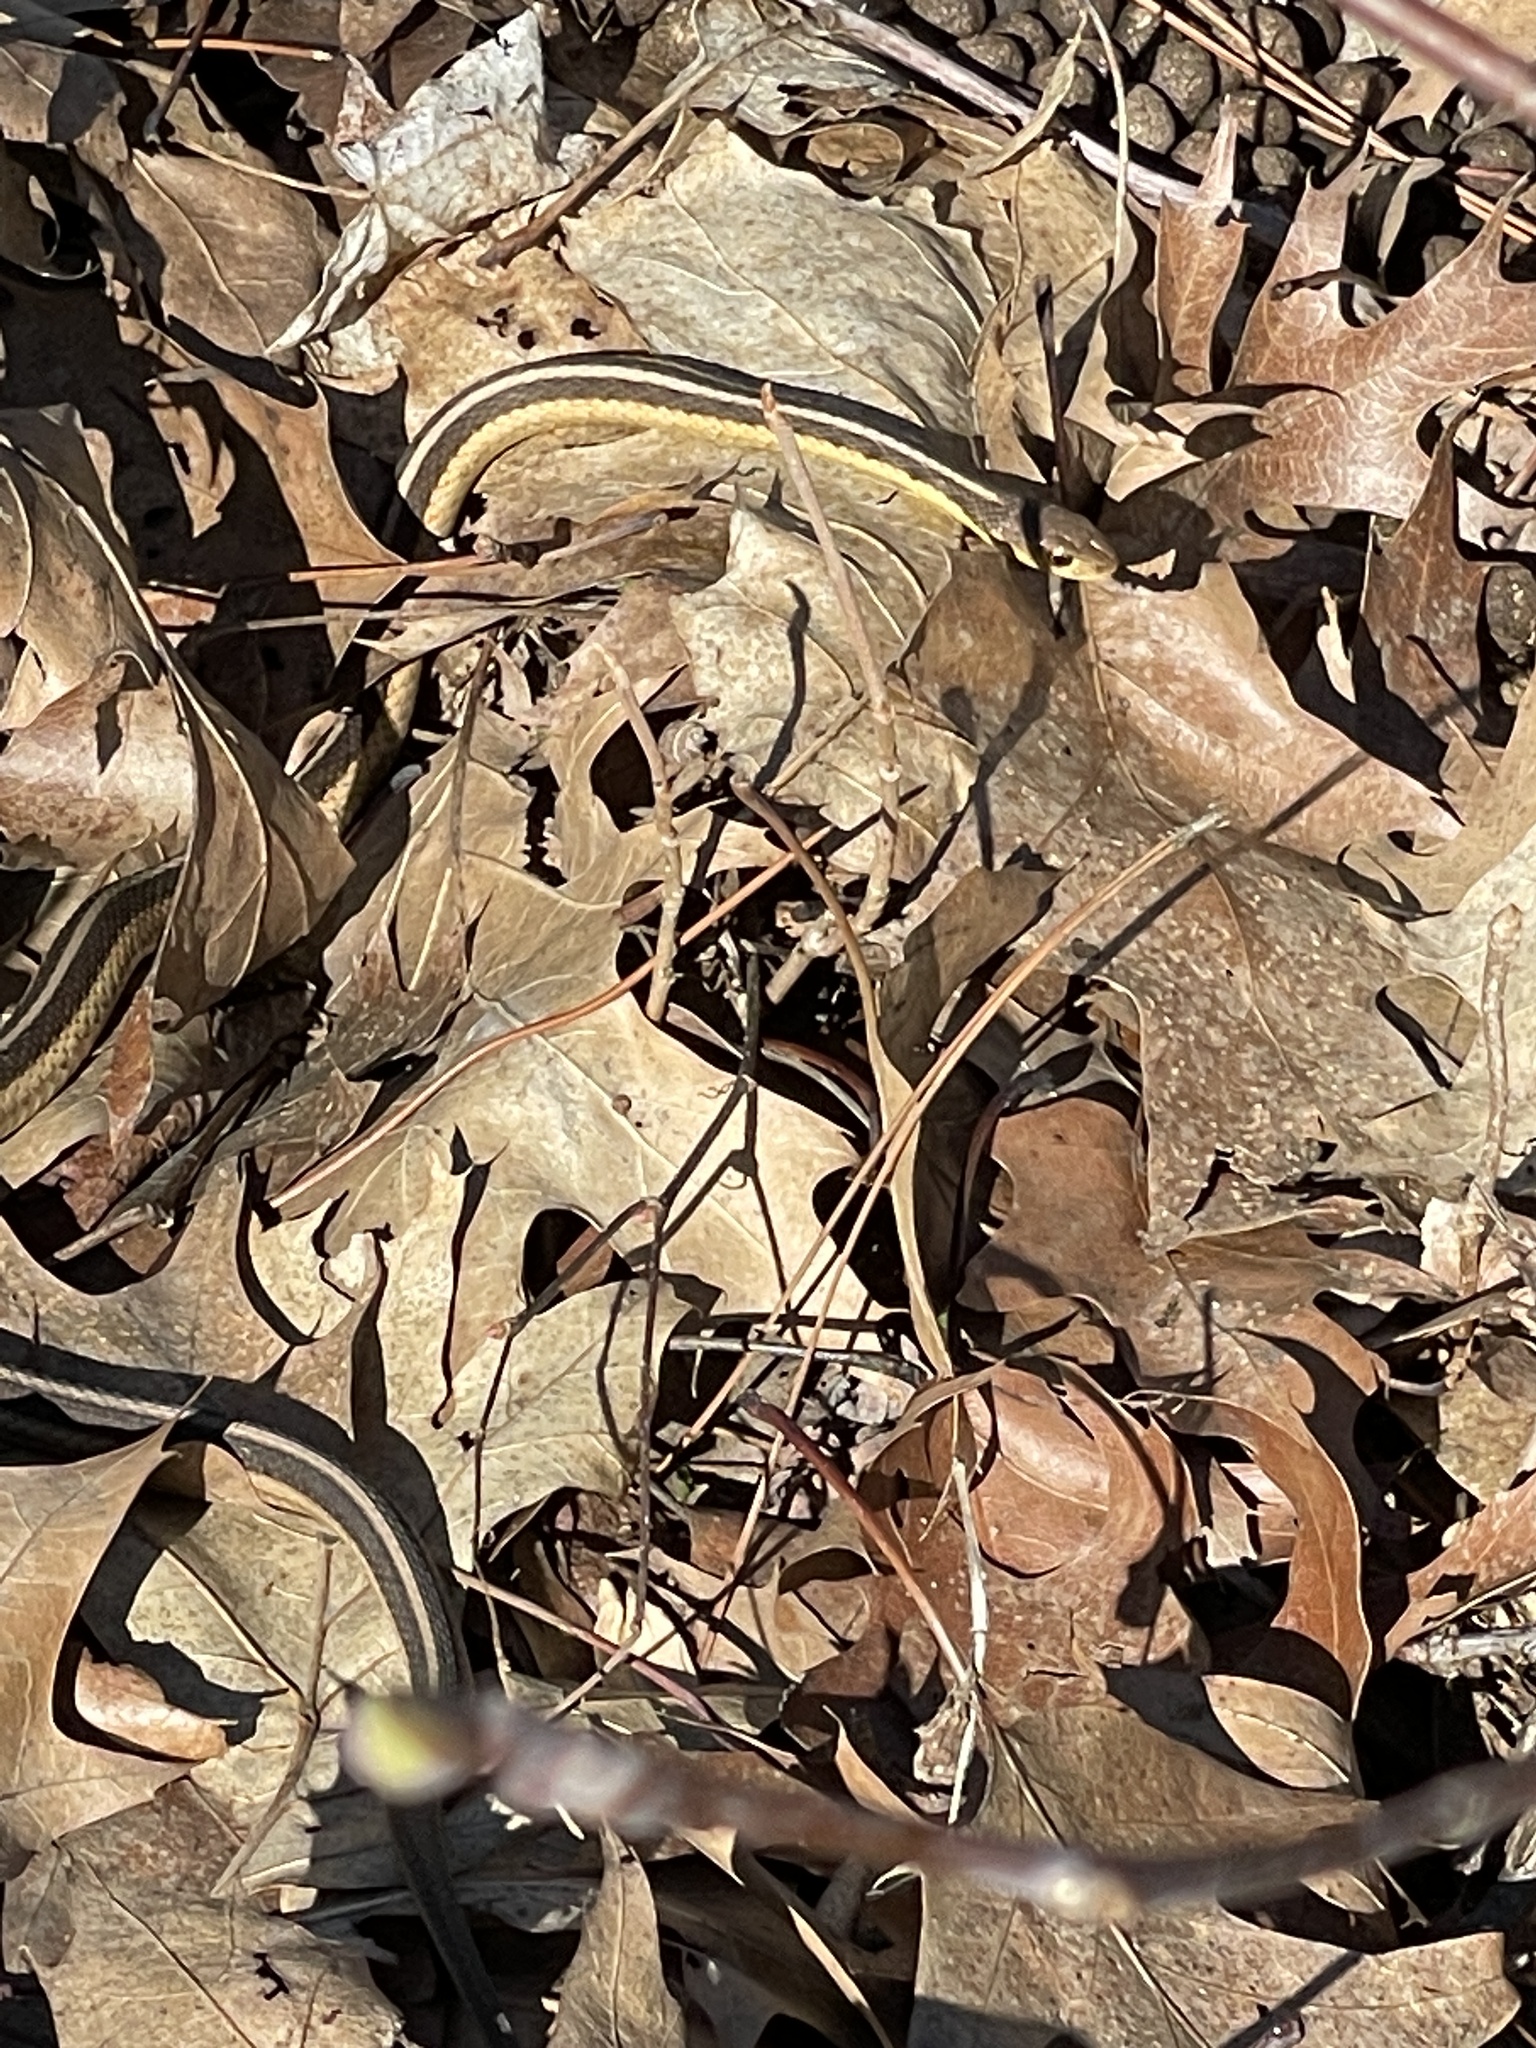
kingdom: Animalia
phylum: Chordata
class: Squamata
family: Colubridae
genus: Thamnophis
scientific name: Thamnophis sirtalis
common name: Common garter snake
